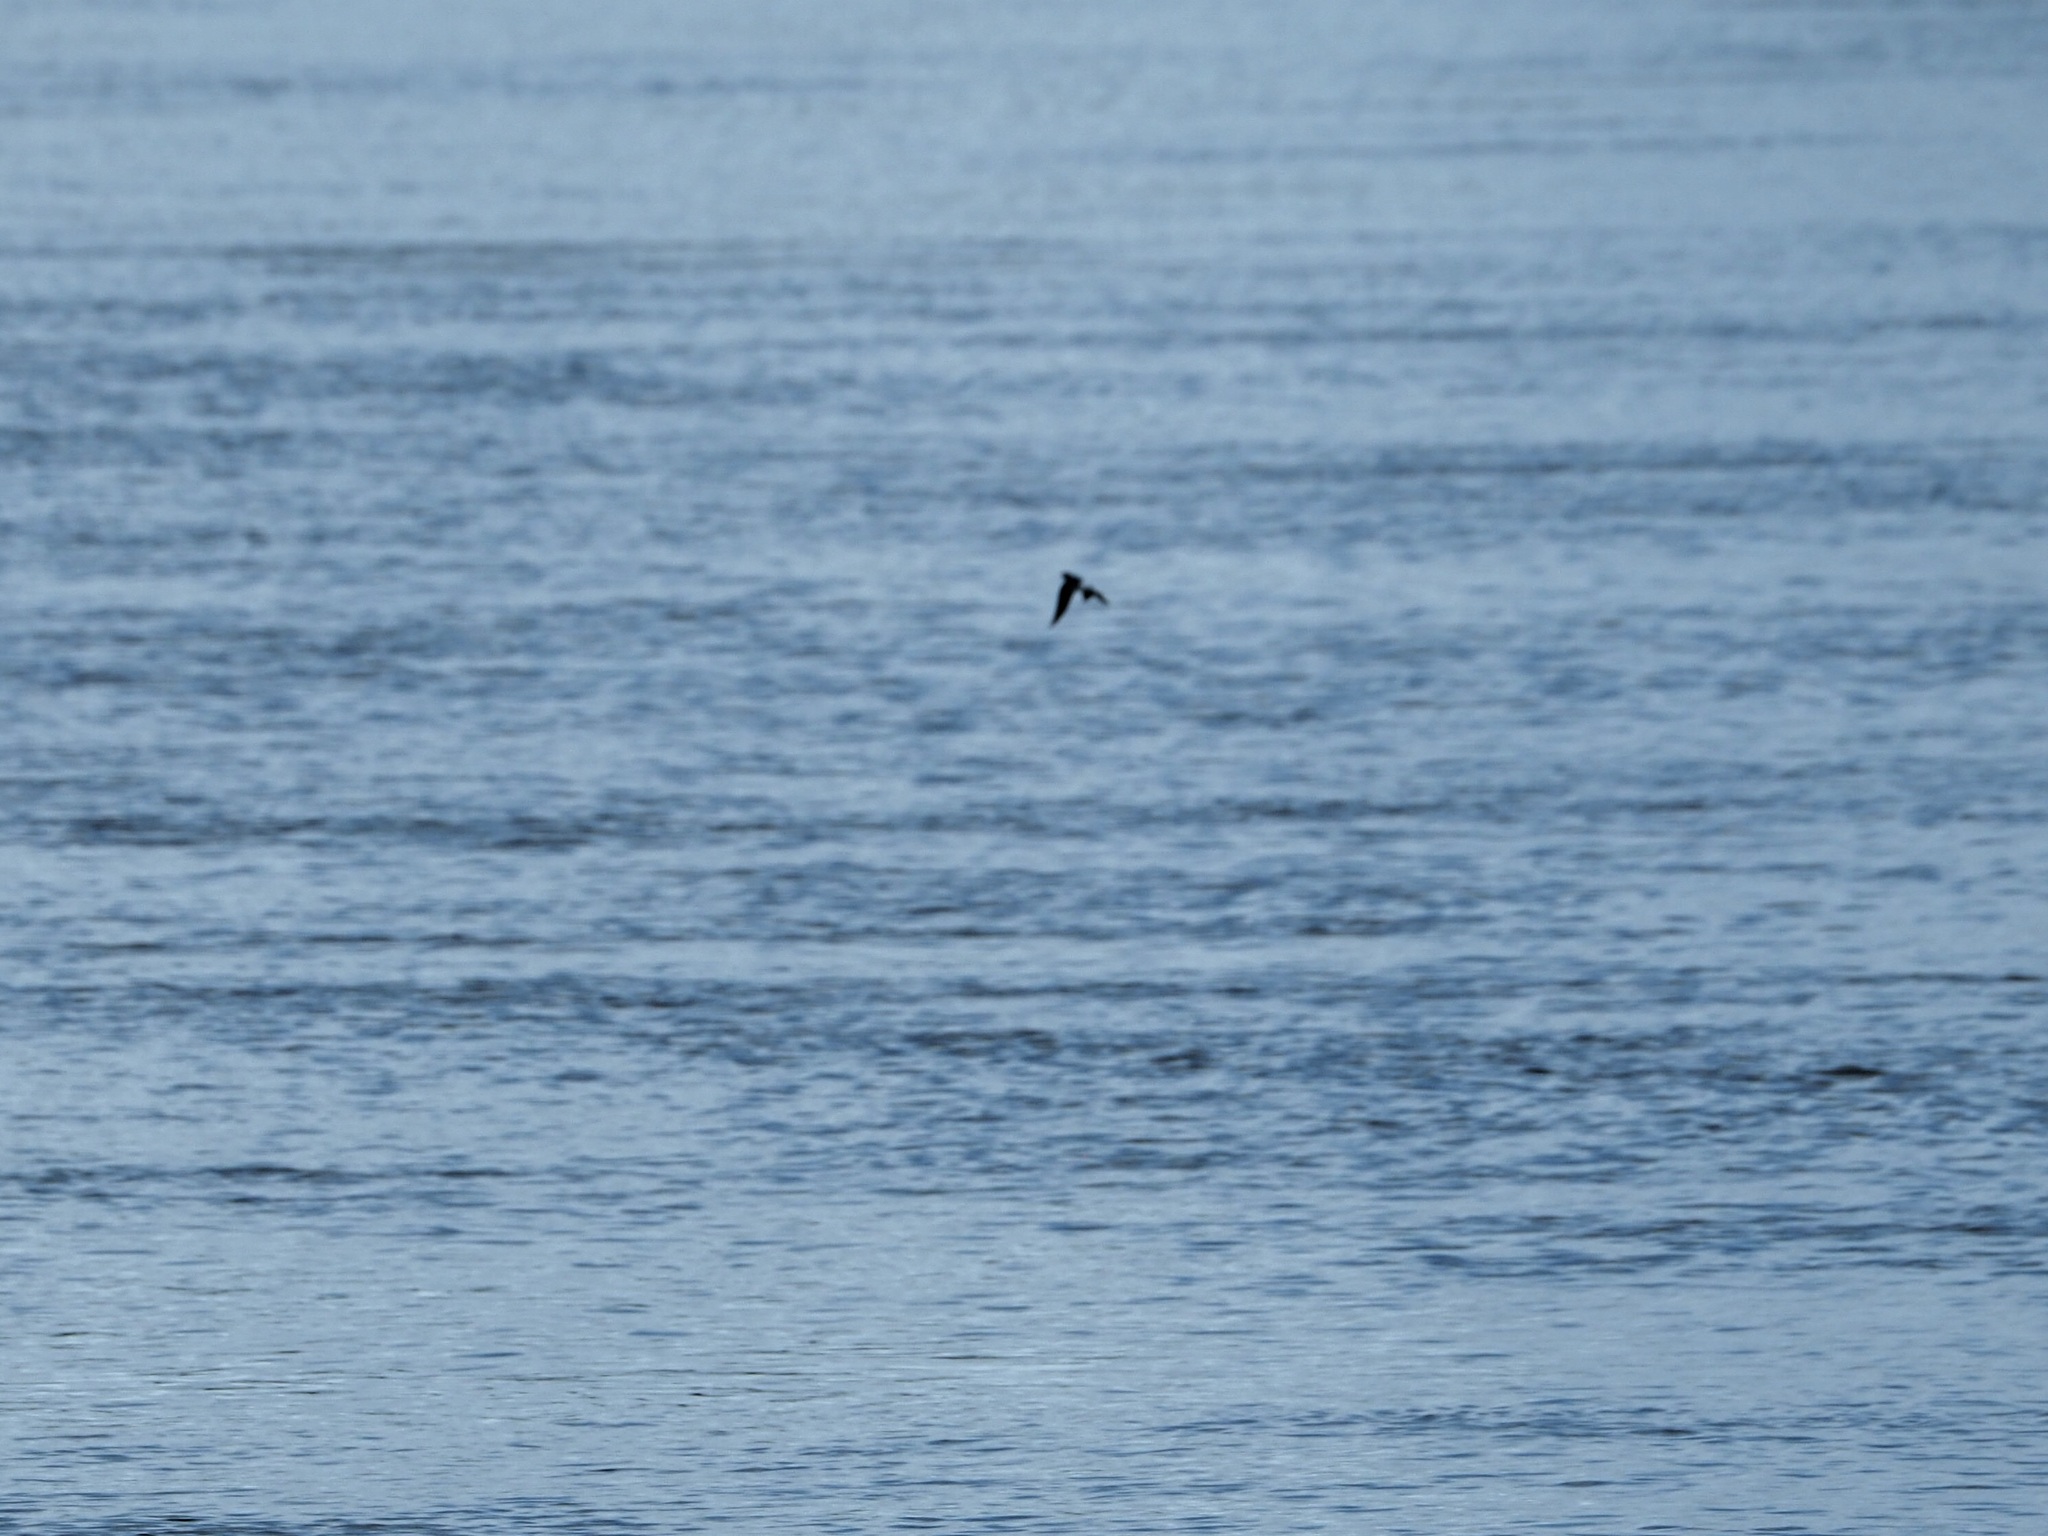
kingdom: Animalia
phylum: Chordata
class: Aves
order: Passeriformes
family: Hirundinidae
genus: Tachycineta
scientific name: Tachycineta albiventer
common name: White-winged swallow
